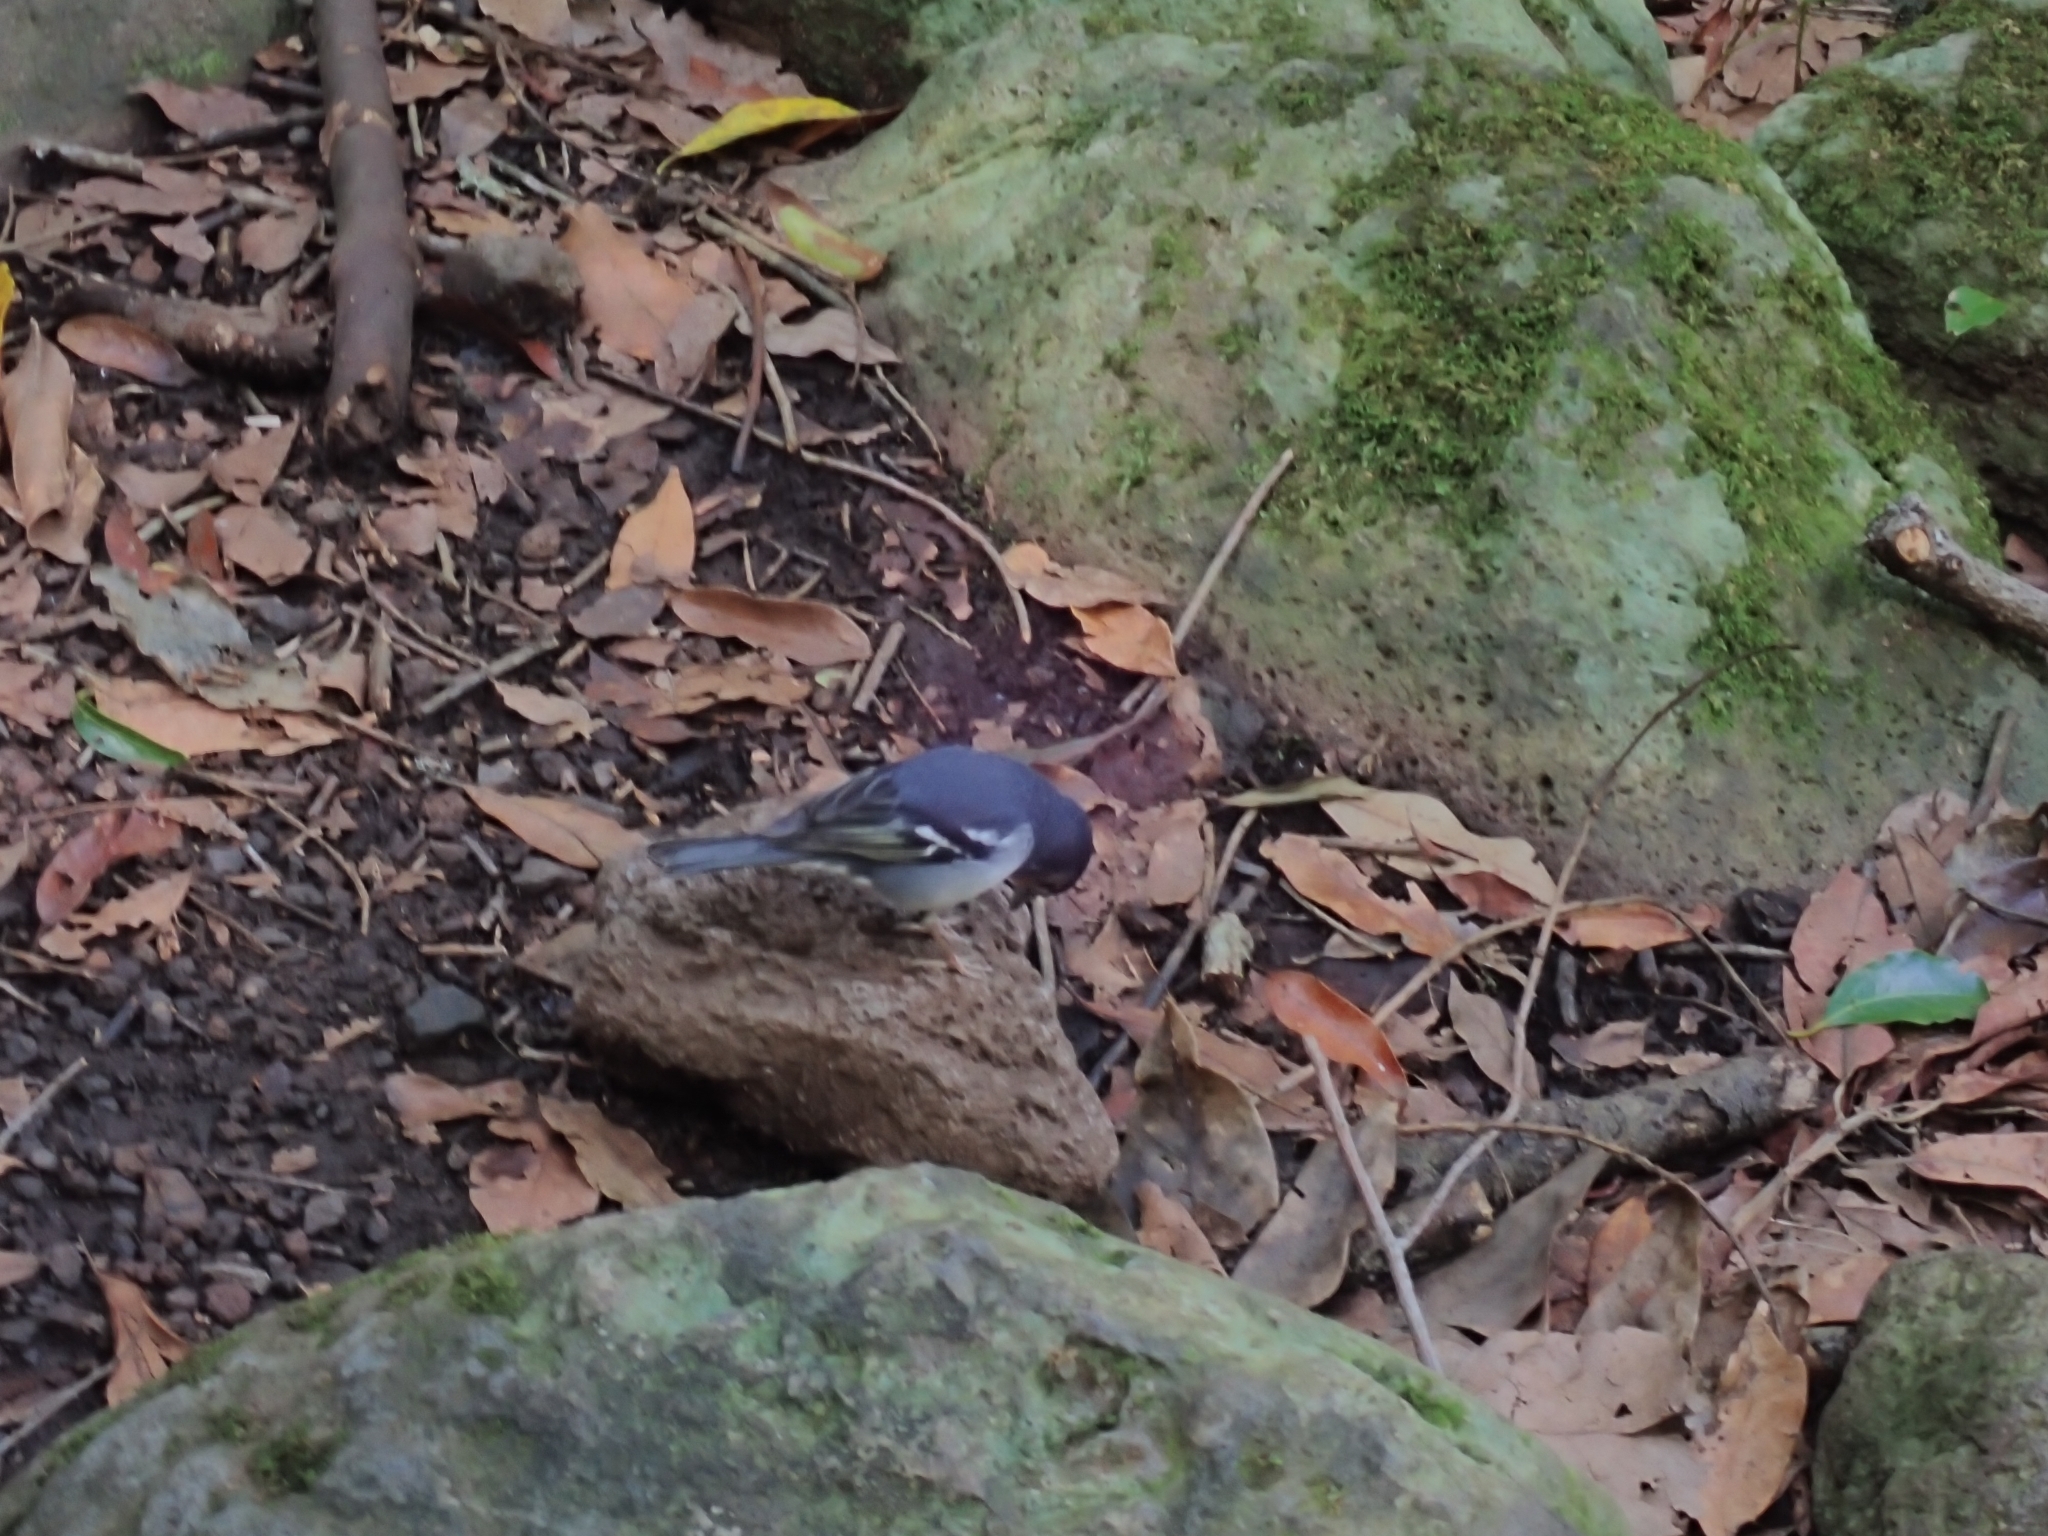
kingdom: Animalia
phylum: Chordata
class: Aves
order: Passeriformes
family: Fringillidae
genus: Fringilla
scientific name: Fringilla canariensis
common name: Canary islands chaffinch
